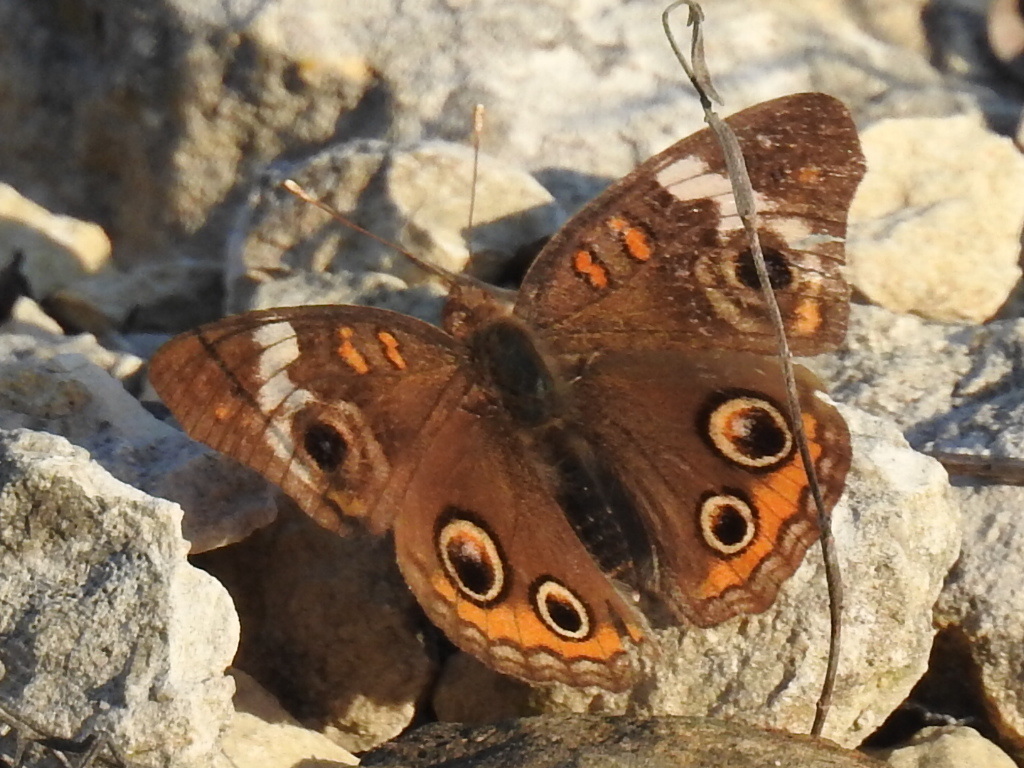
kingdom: Animalia
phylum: Arthropoda
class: Insecta
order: Lepidoptera
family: Nymphalidae
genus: Junonia
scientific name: Junonia coenia
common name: Common buckeye
